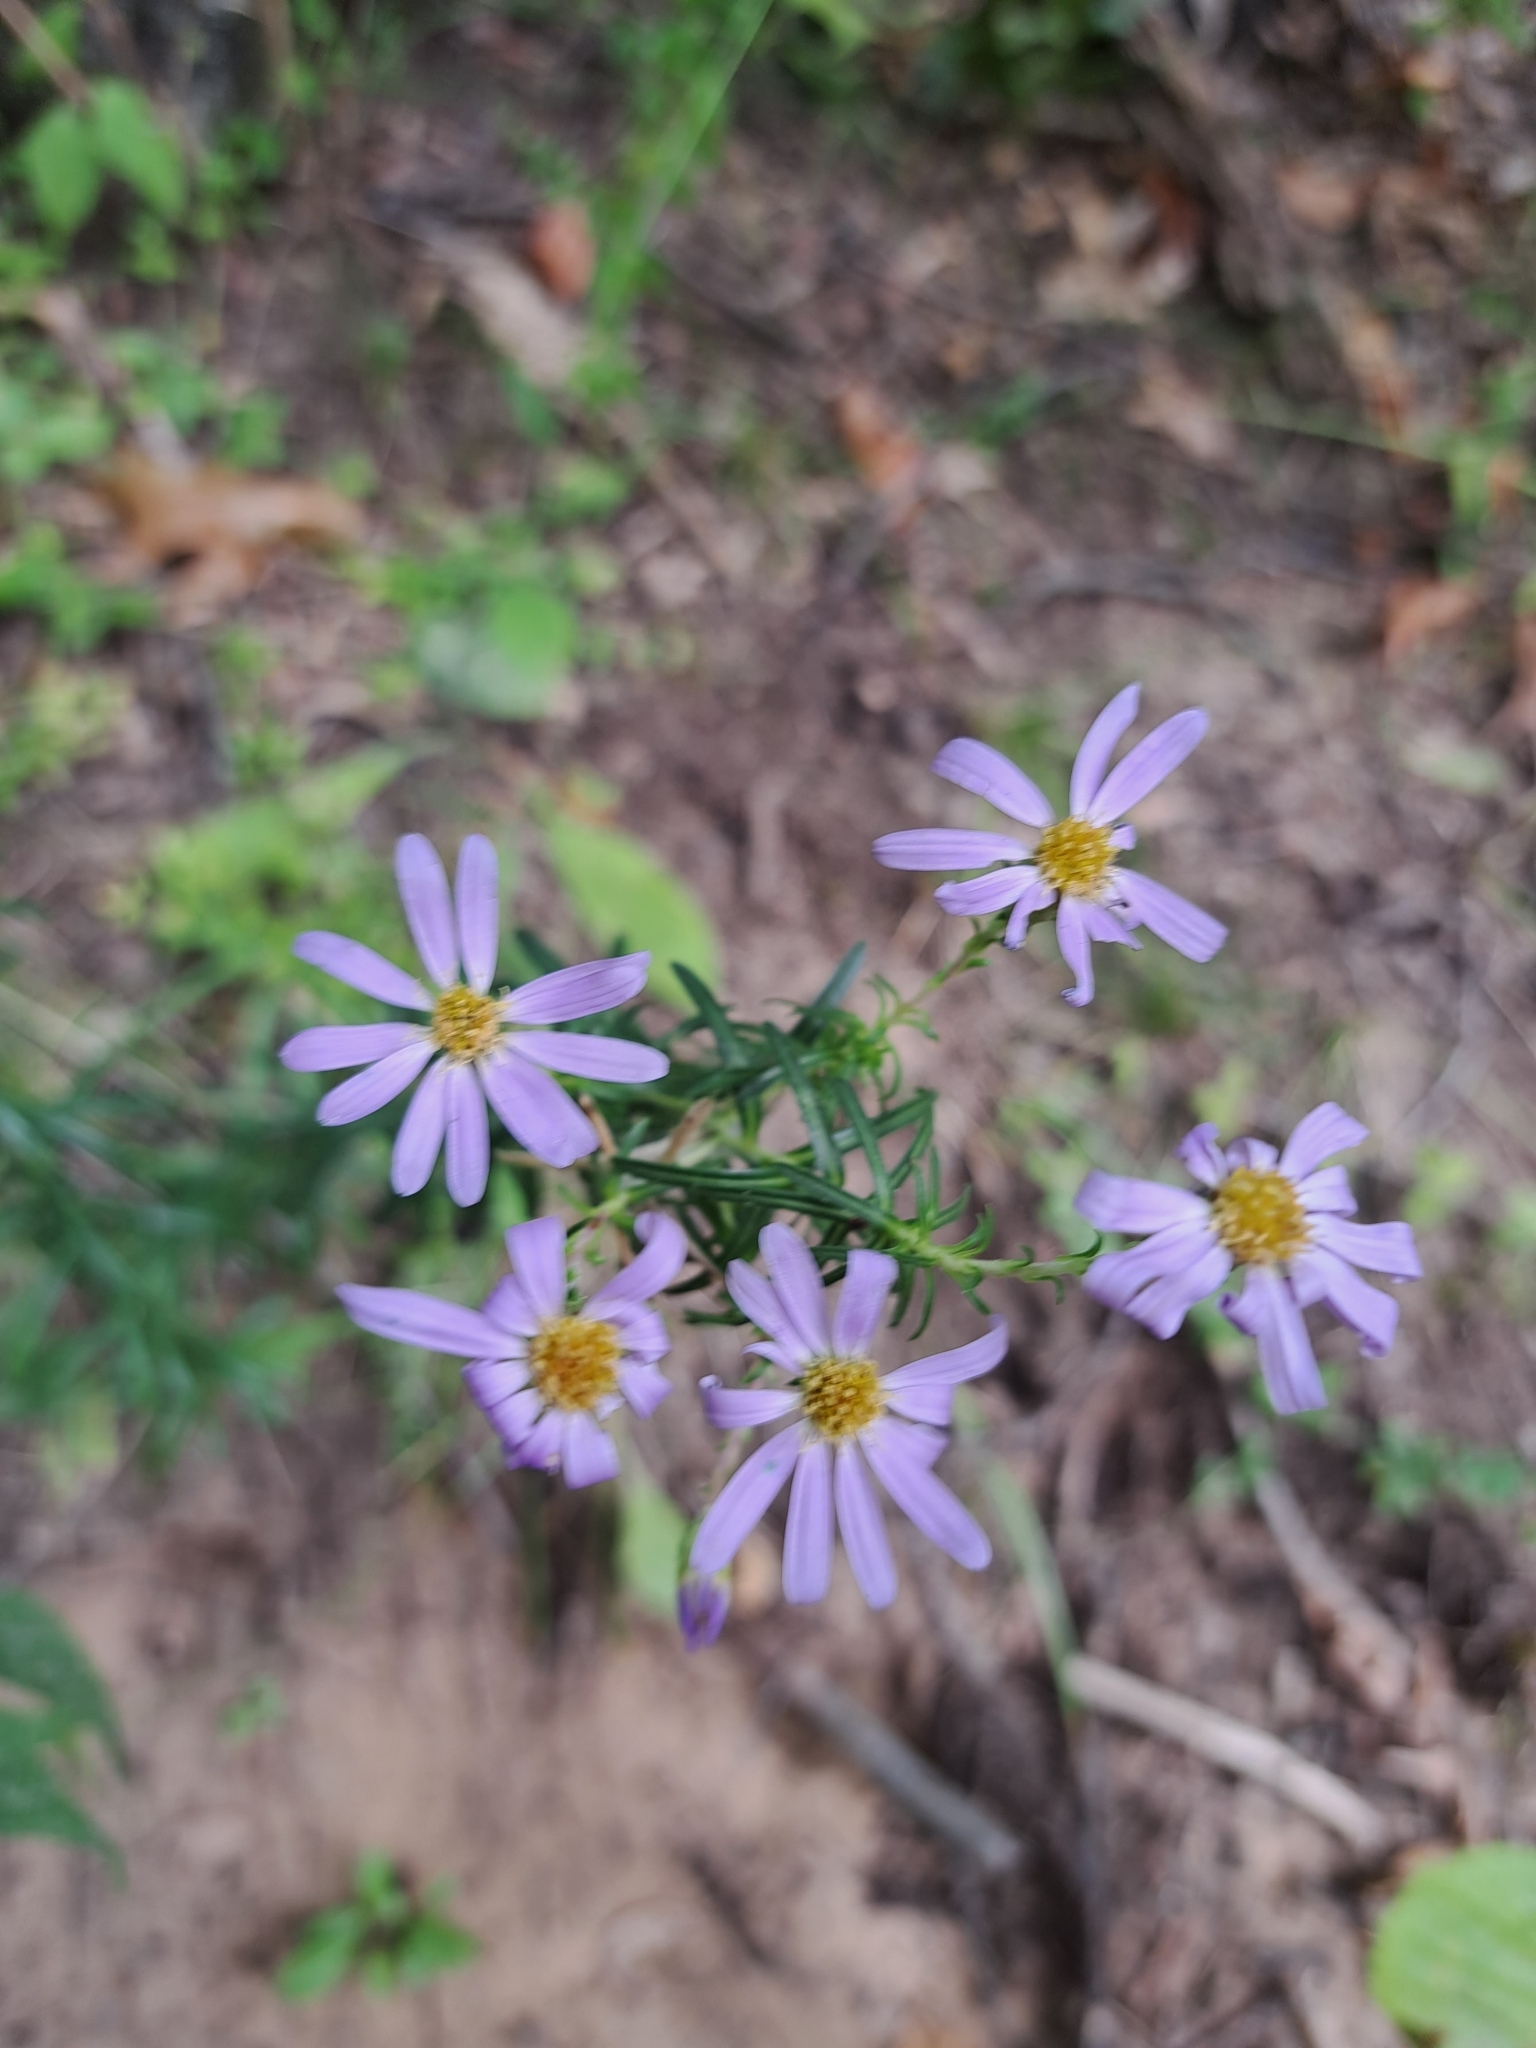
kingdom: Plantae
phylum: Tracheophyta
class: Magnoliopsida
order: Asterales
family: Asteraceae
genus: Ionactis
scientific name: Ionactis linariifolia
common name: Flax-leaf aster
